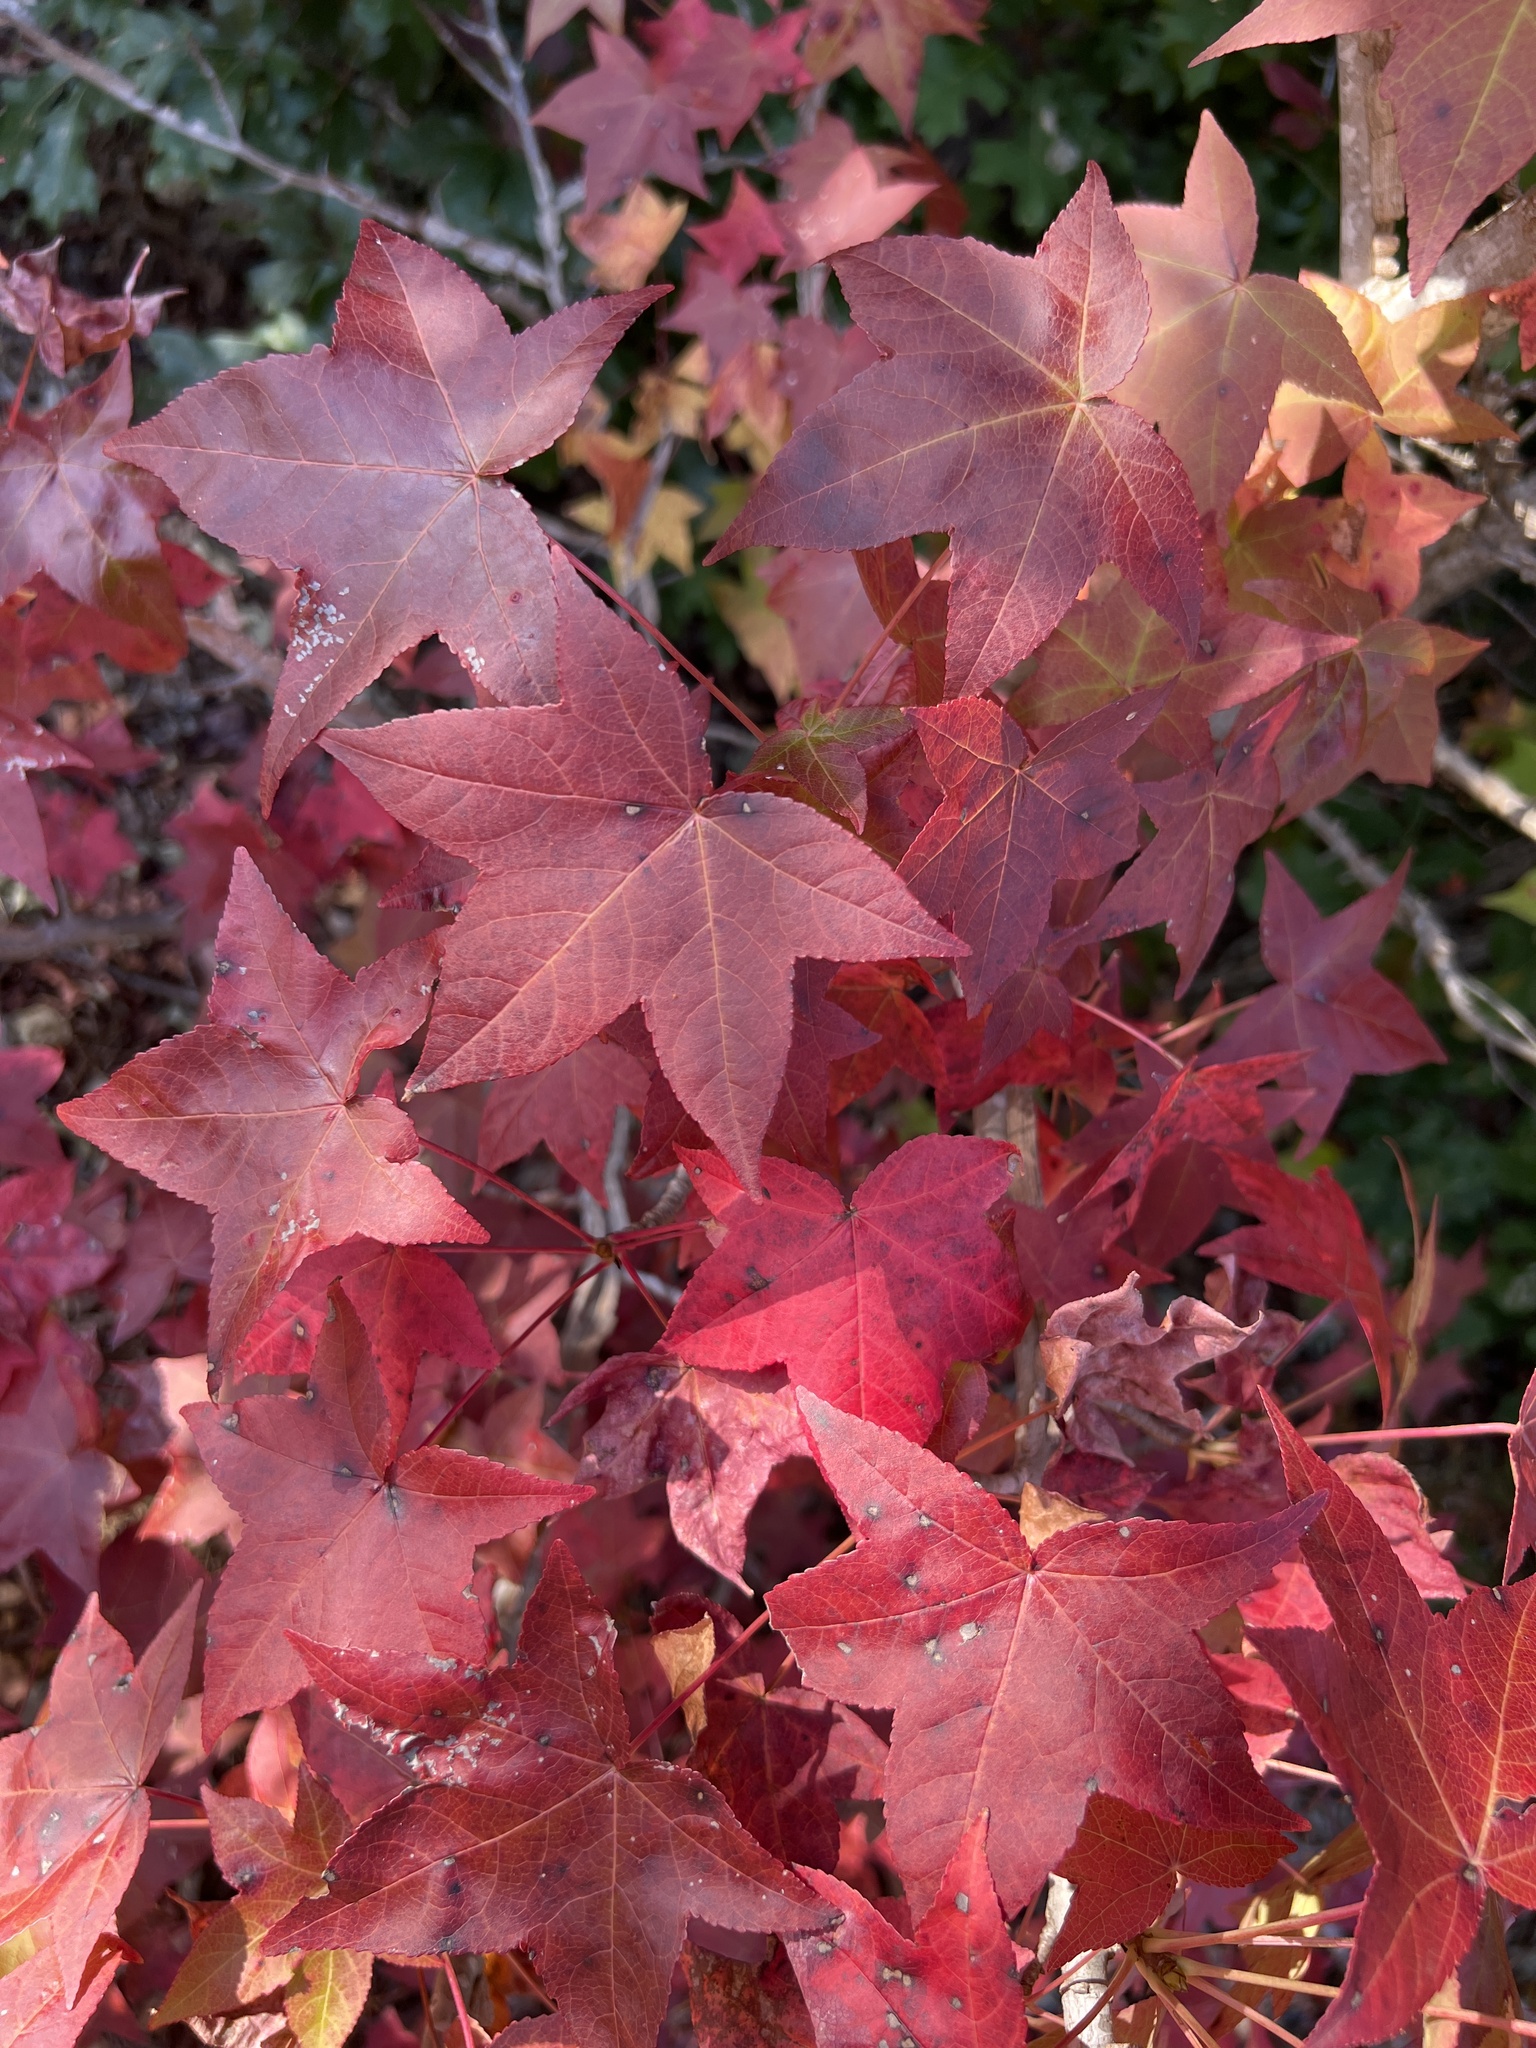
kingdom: Plantae
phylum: Tracheophyta
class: Magnoliopsida
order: Saxifragales
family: Altingiaceae
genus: Liquidambar
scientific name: Liquidambar styraciflua
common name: Sweet gum
